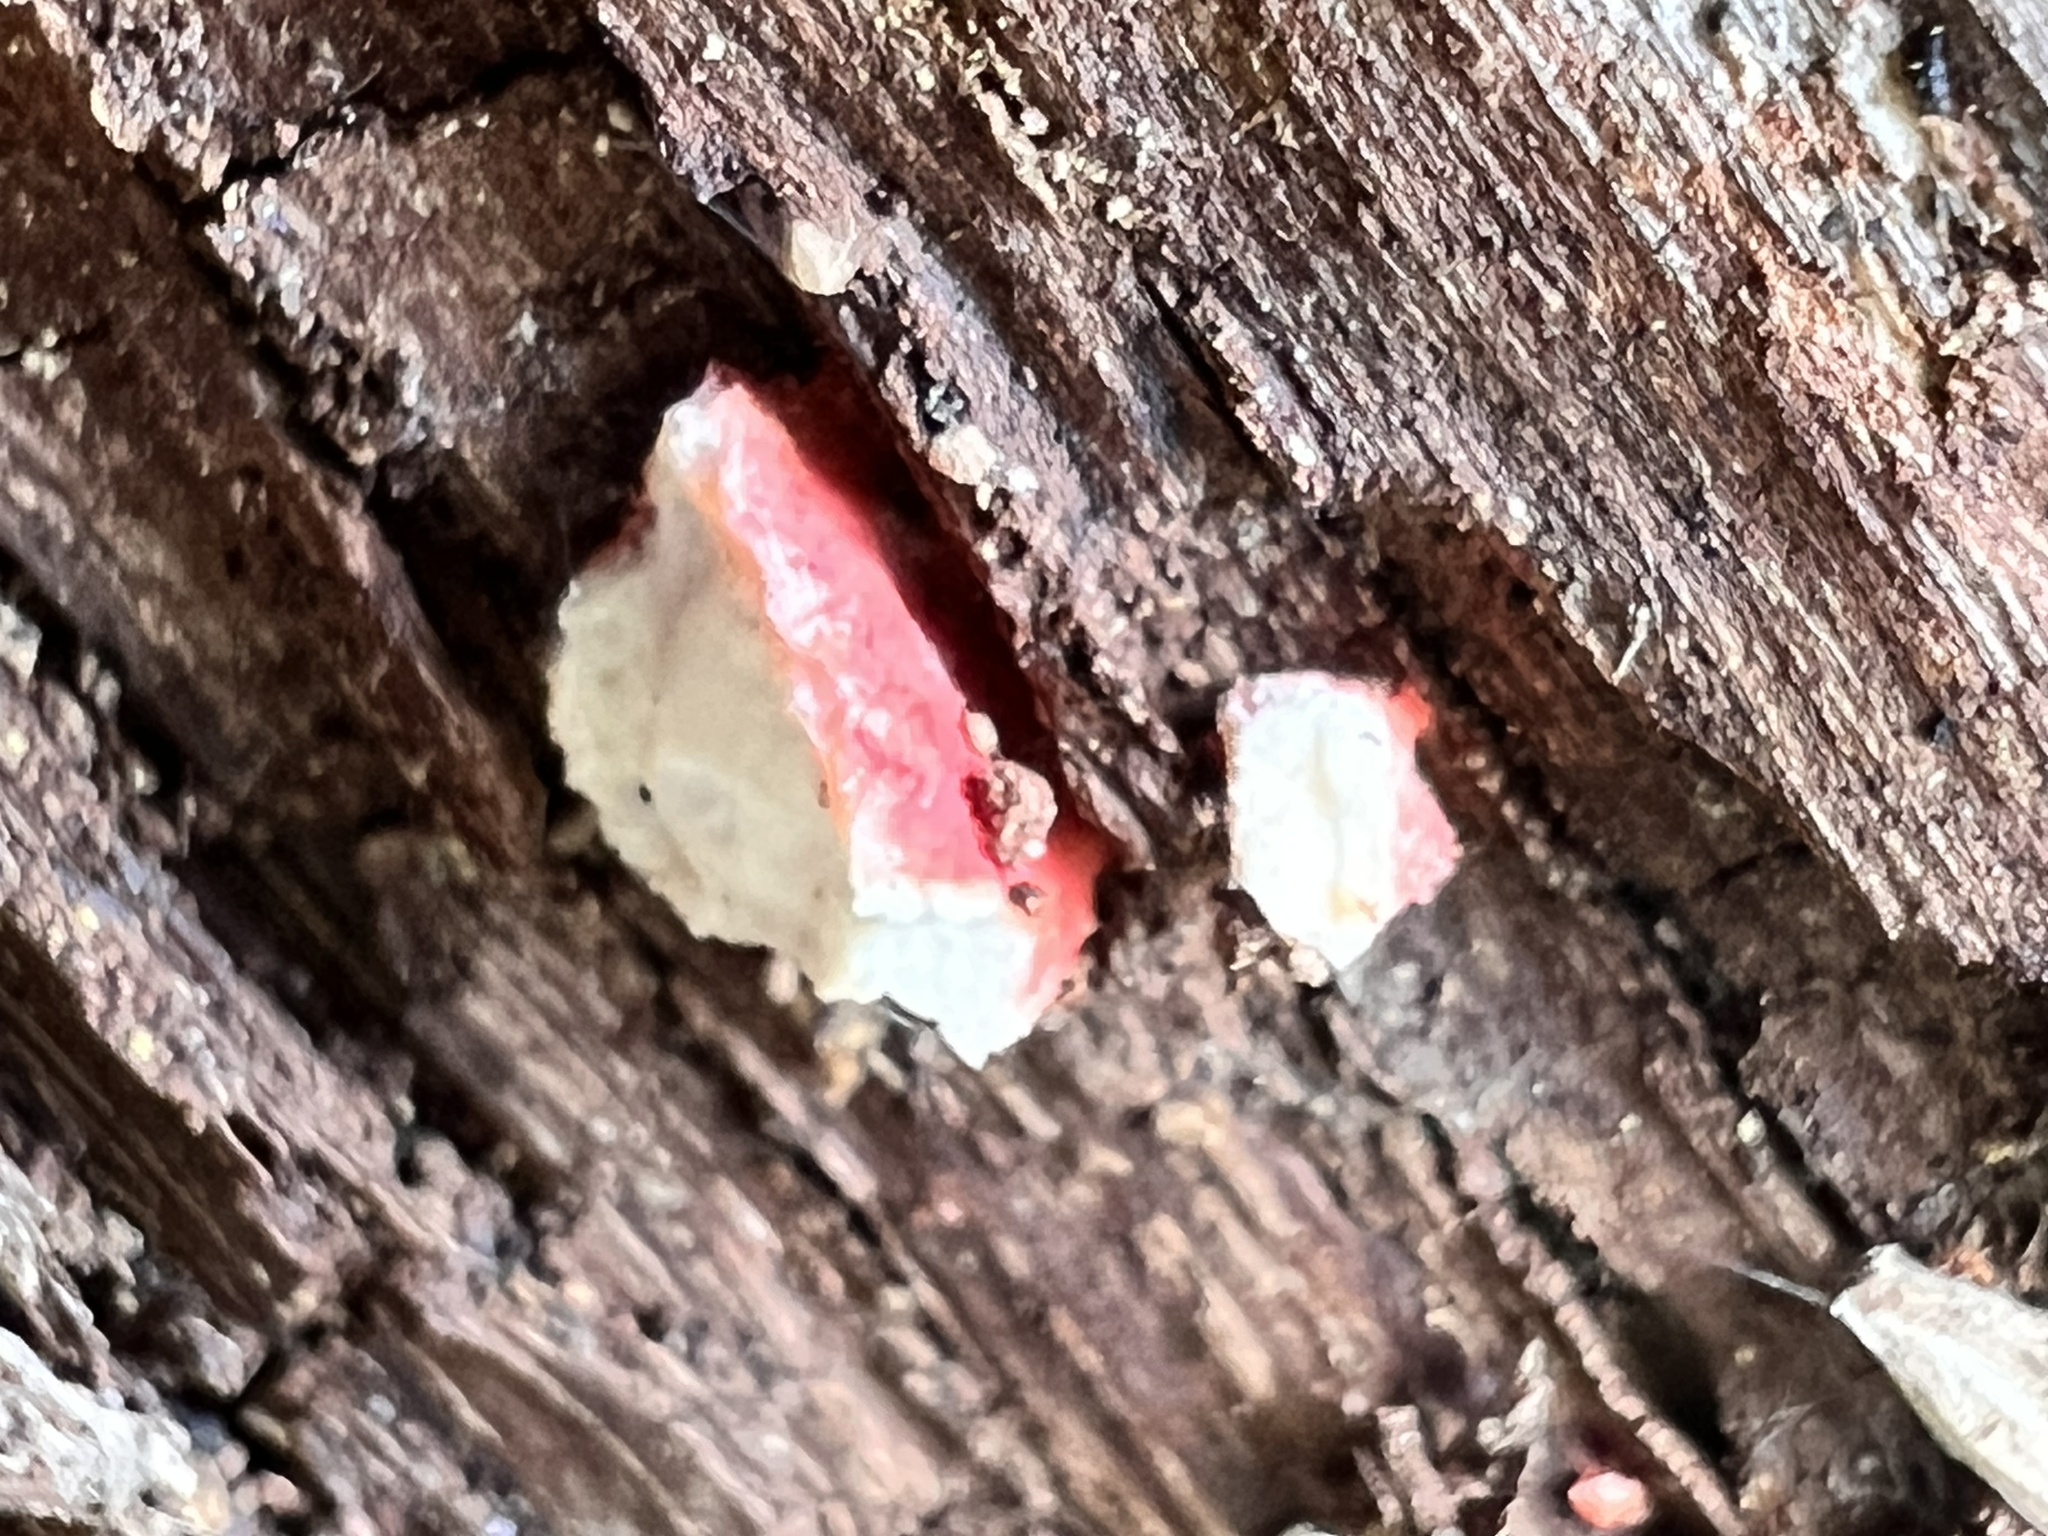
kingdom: Fungi
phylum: Basidiomycota
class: Agaricomycetes
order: Polyporales
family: Irpicaceae
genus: Byssomerulius
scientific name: Byssomerulius incarnatus
